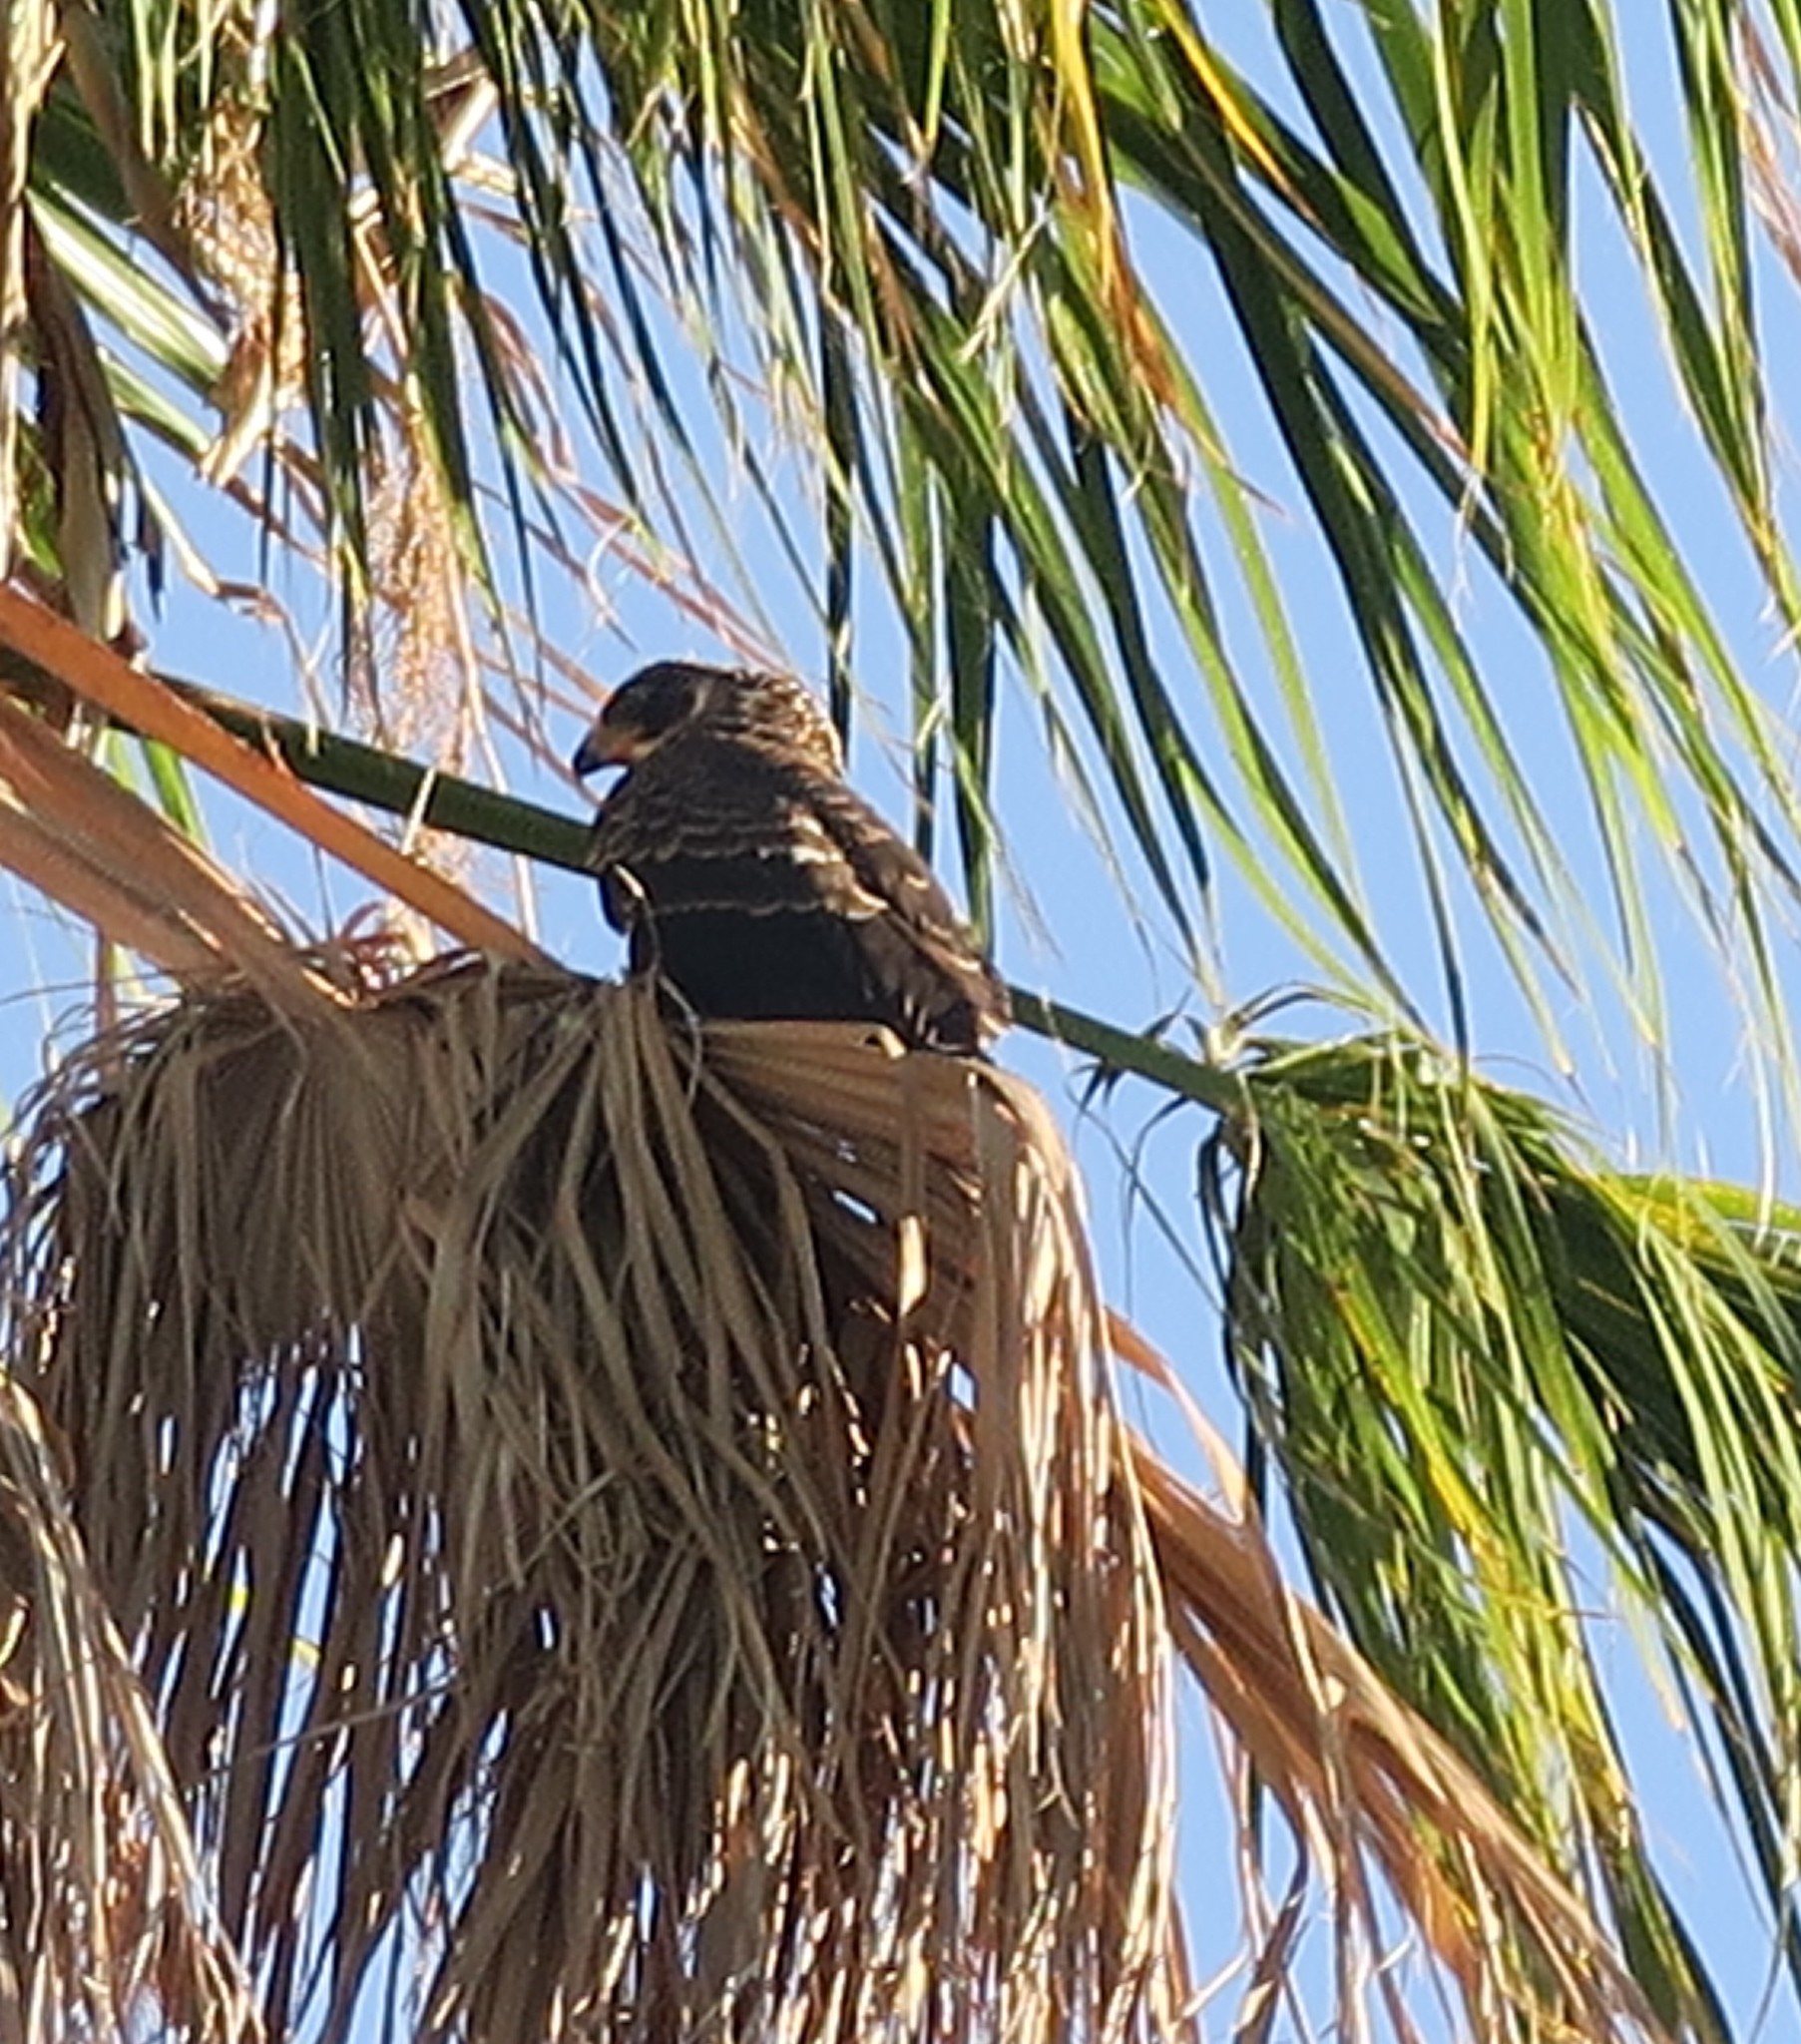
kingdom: Animalia
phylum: Chordata
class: Aves
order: Accipitriformes
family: Accipitridae
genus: Accipiter
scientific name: Accipiter melanoleucus
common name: Black sparrowhawk
